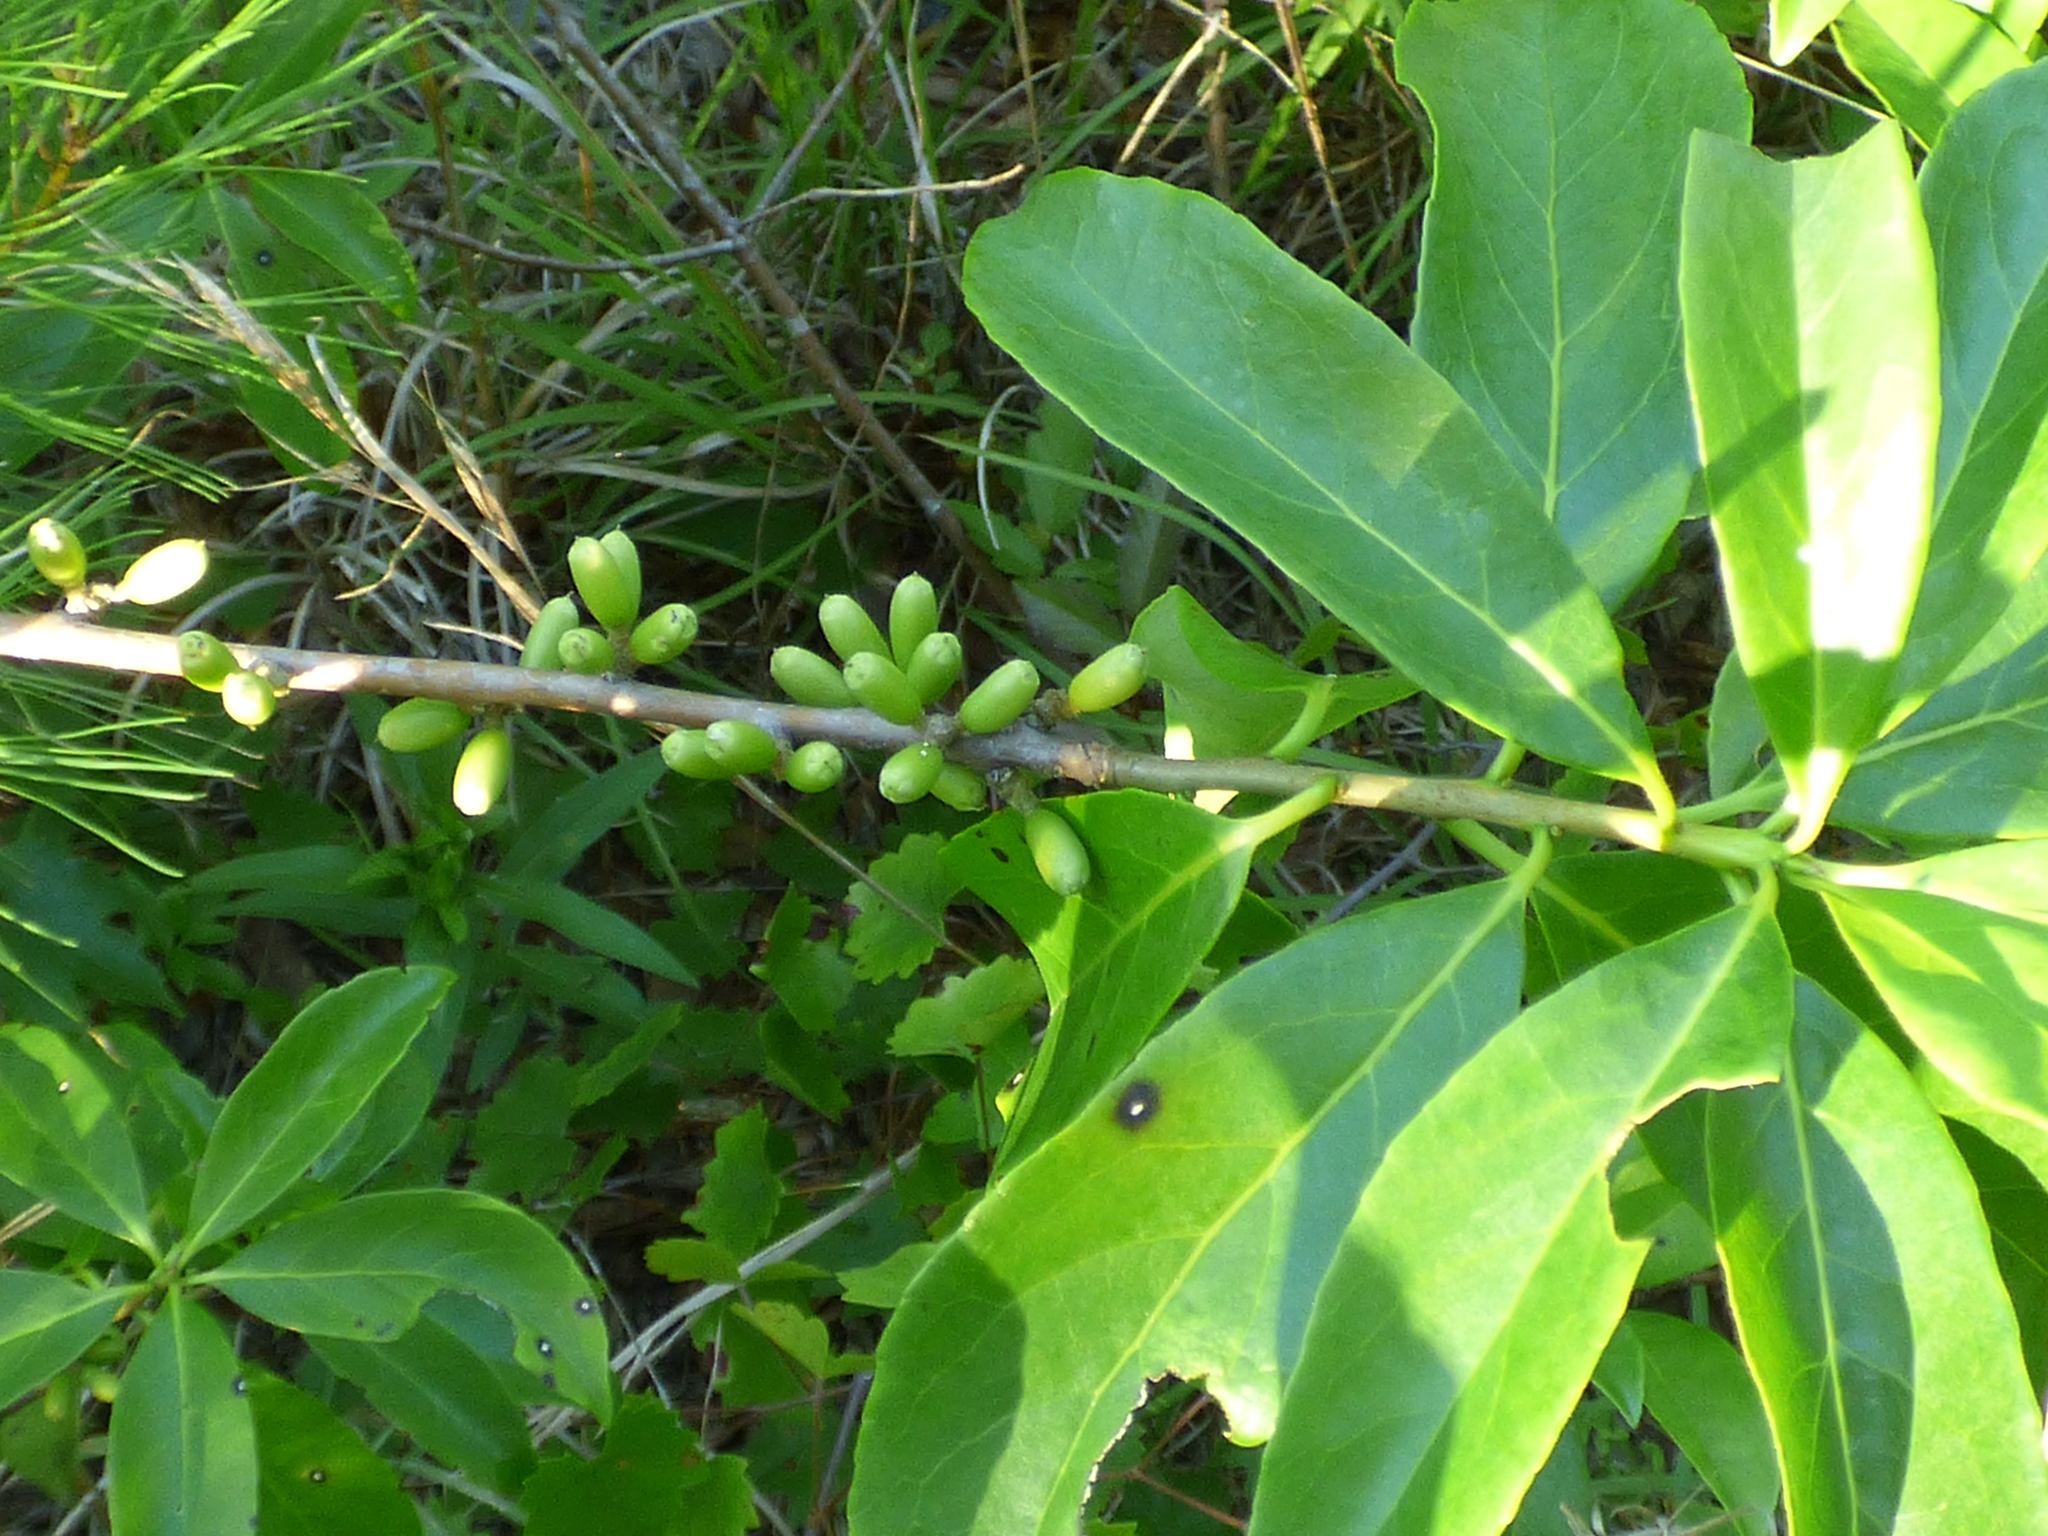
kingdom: Plantae
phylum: Tracheophyta
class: Magnoliopsida
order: Ericales
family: Symplocaceae
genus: Symplocos
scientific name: Symplocos tinctoria
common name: Horse-sugar
